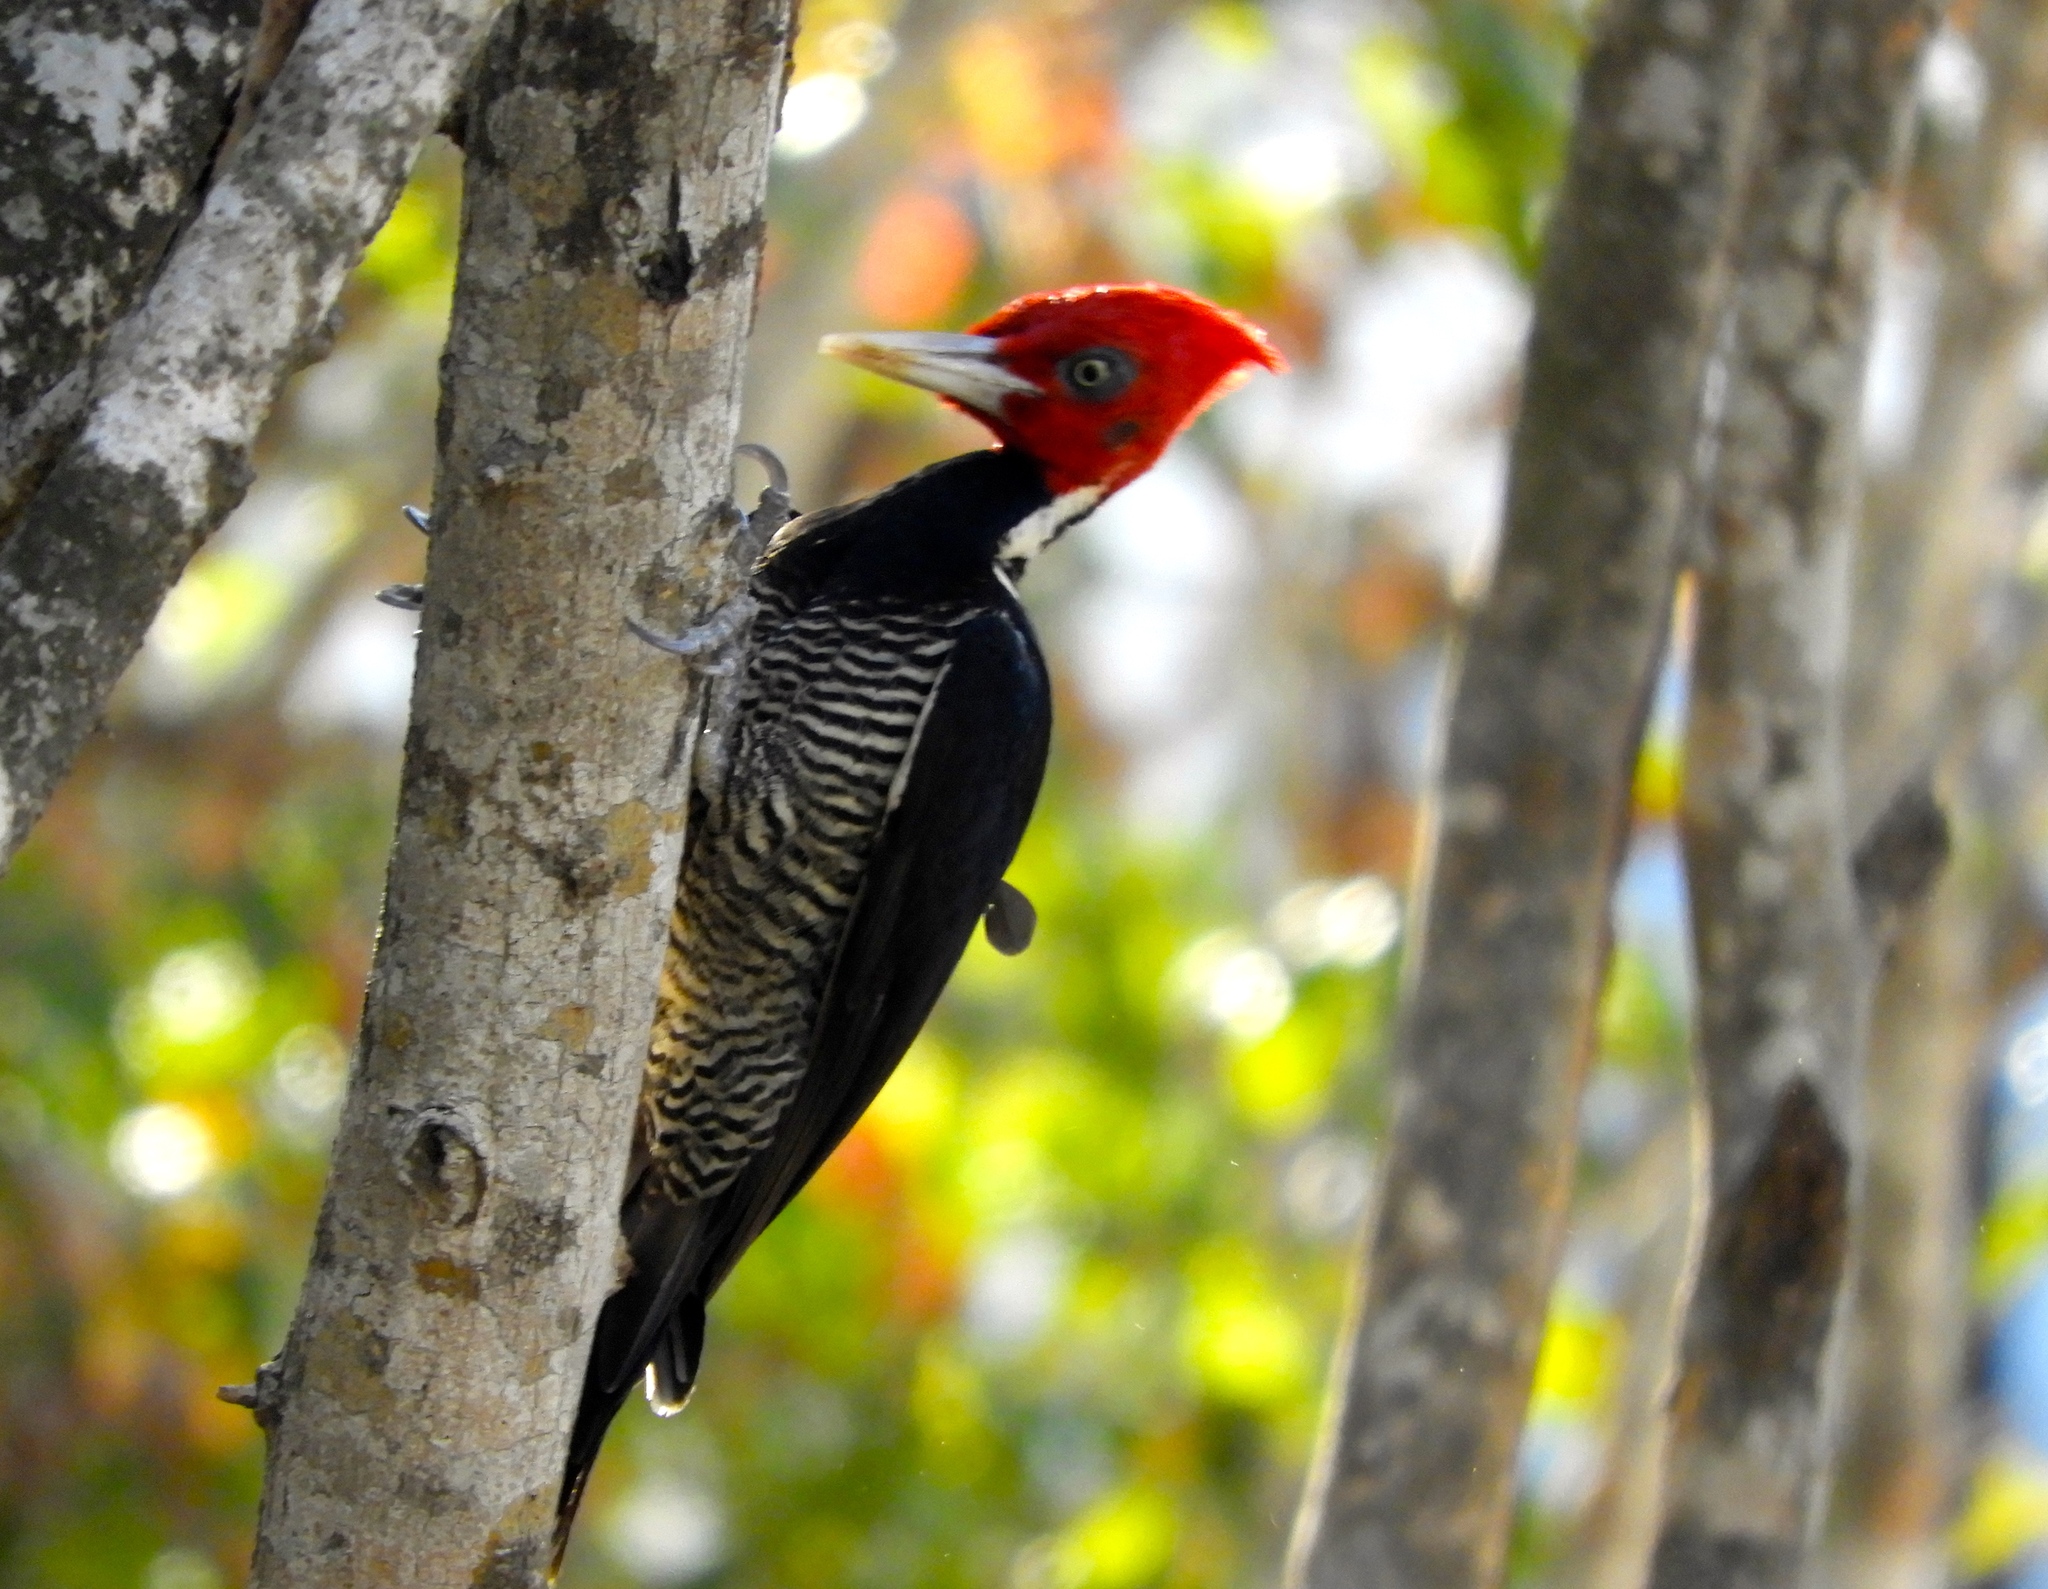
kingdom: Animalia
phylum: Chordata
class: Aves
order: Piciformes
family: Picidae
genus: Campephilus
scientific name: Campephilus guatemalensis
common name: Pale-billed woodpecker
